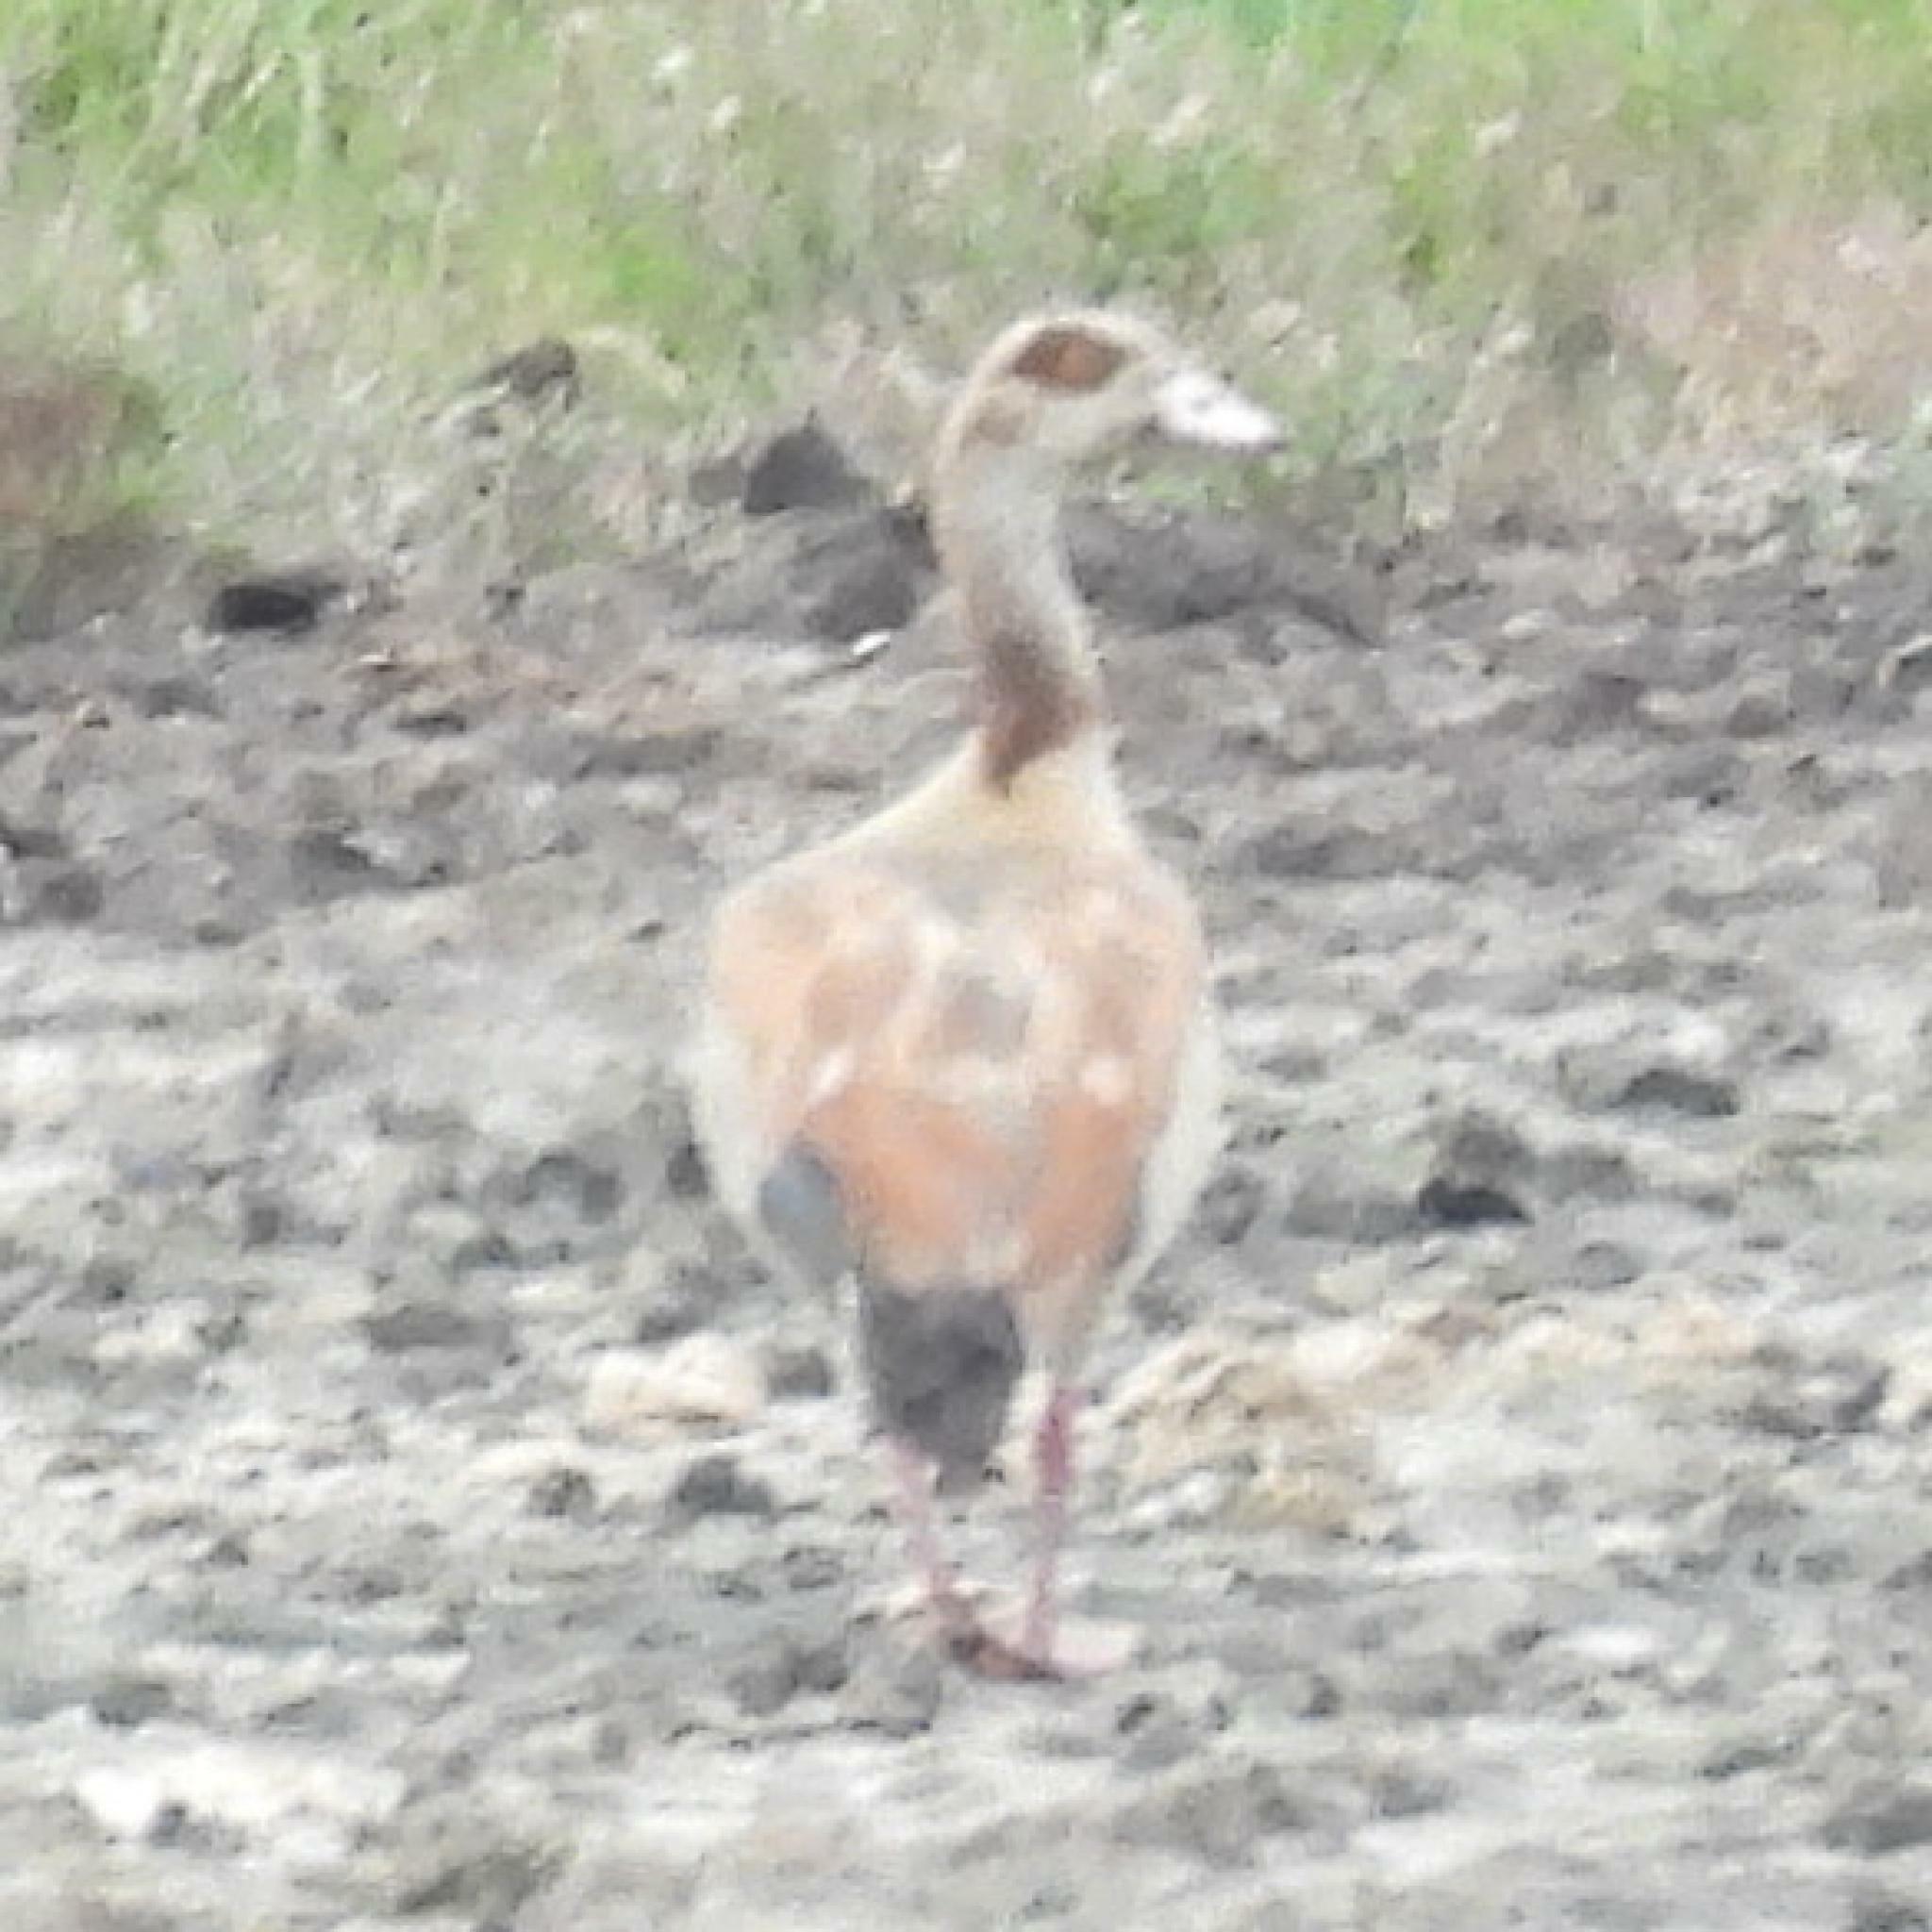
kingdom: Animalia
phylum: Chordata
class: Aves
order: Anseriformes
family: Anatidae
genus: Alopochen
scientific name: Alopochen aegyptiaca
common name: Egyptian goose
